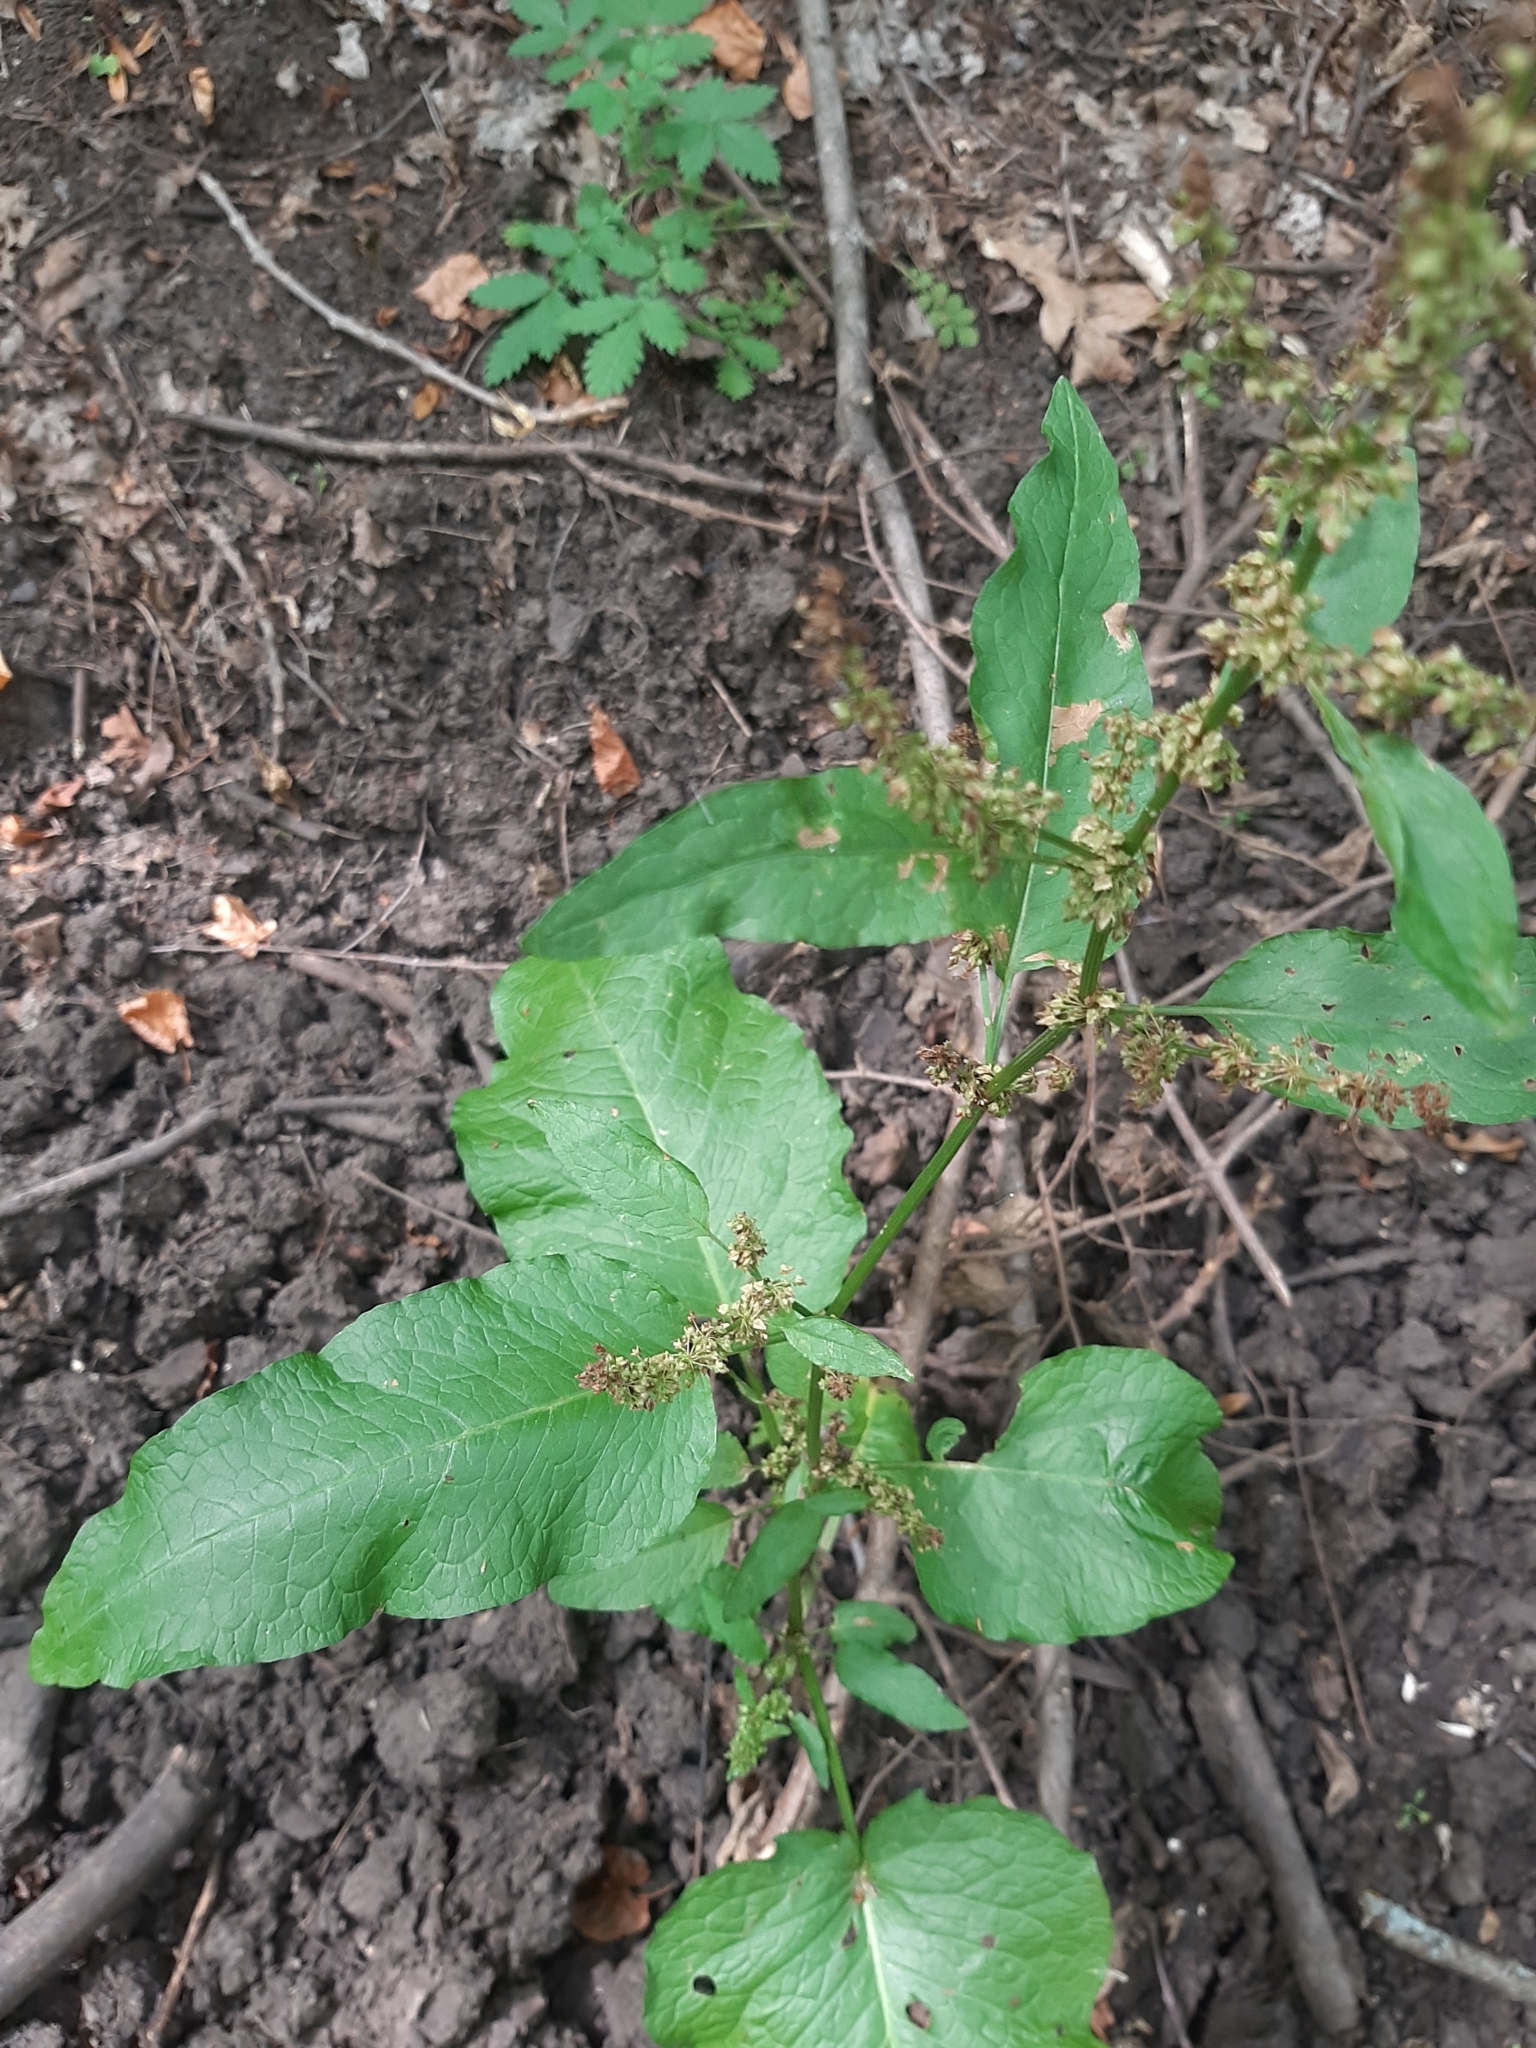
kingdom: Plantae
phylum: Tracheophyta
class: Magnoliopsida
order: Caryophyllales
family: Polygonaceae
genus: Rumex
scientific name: Rumex obtusifolius
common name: Bitter dock
